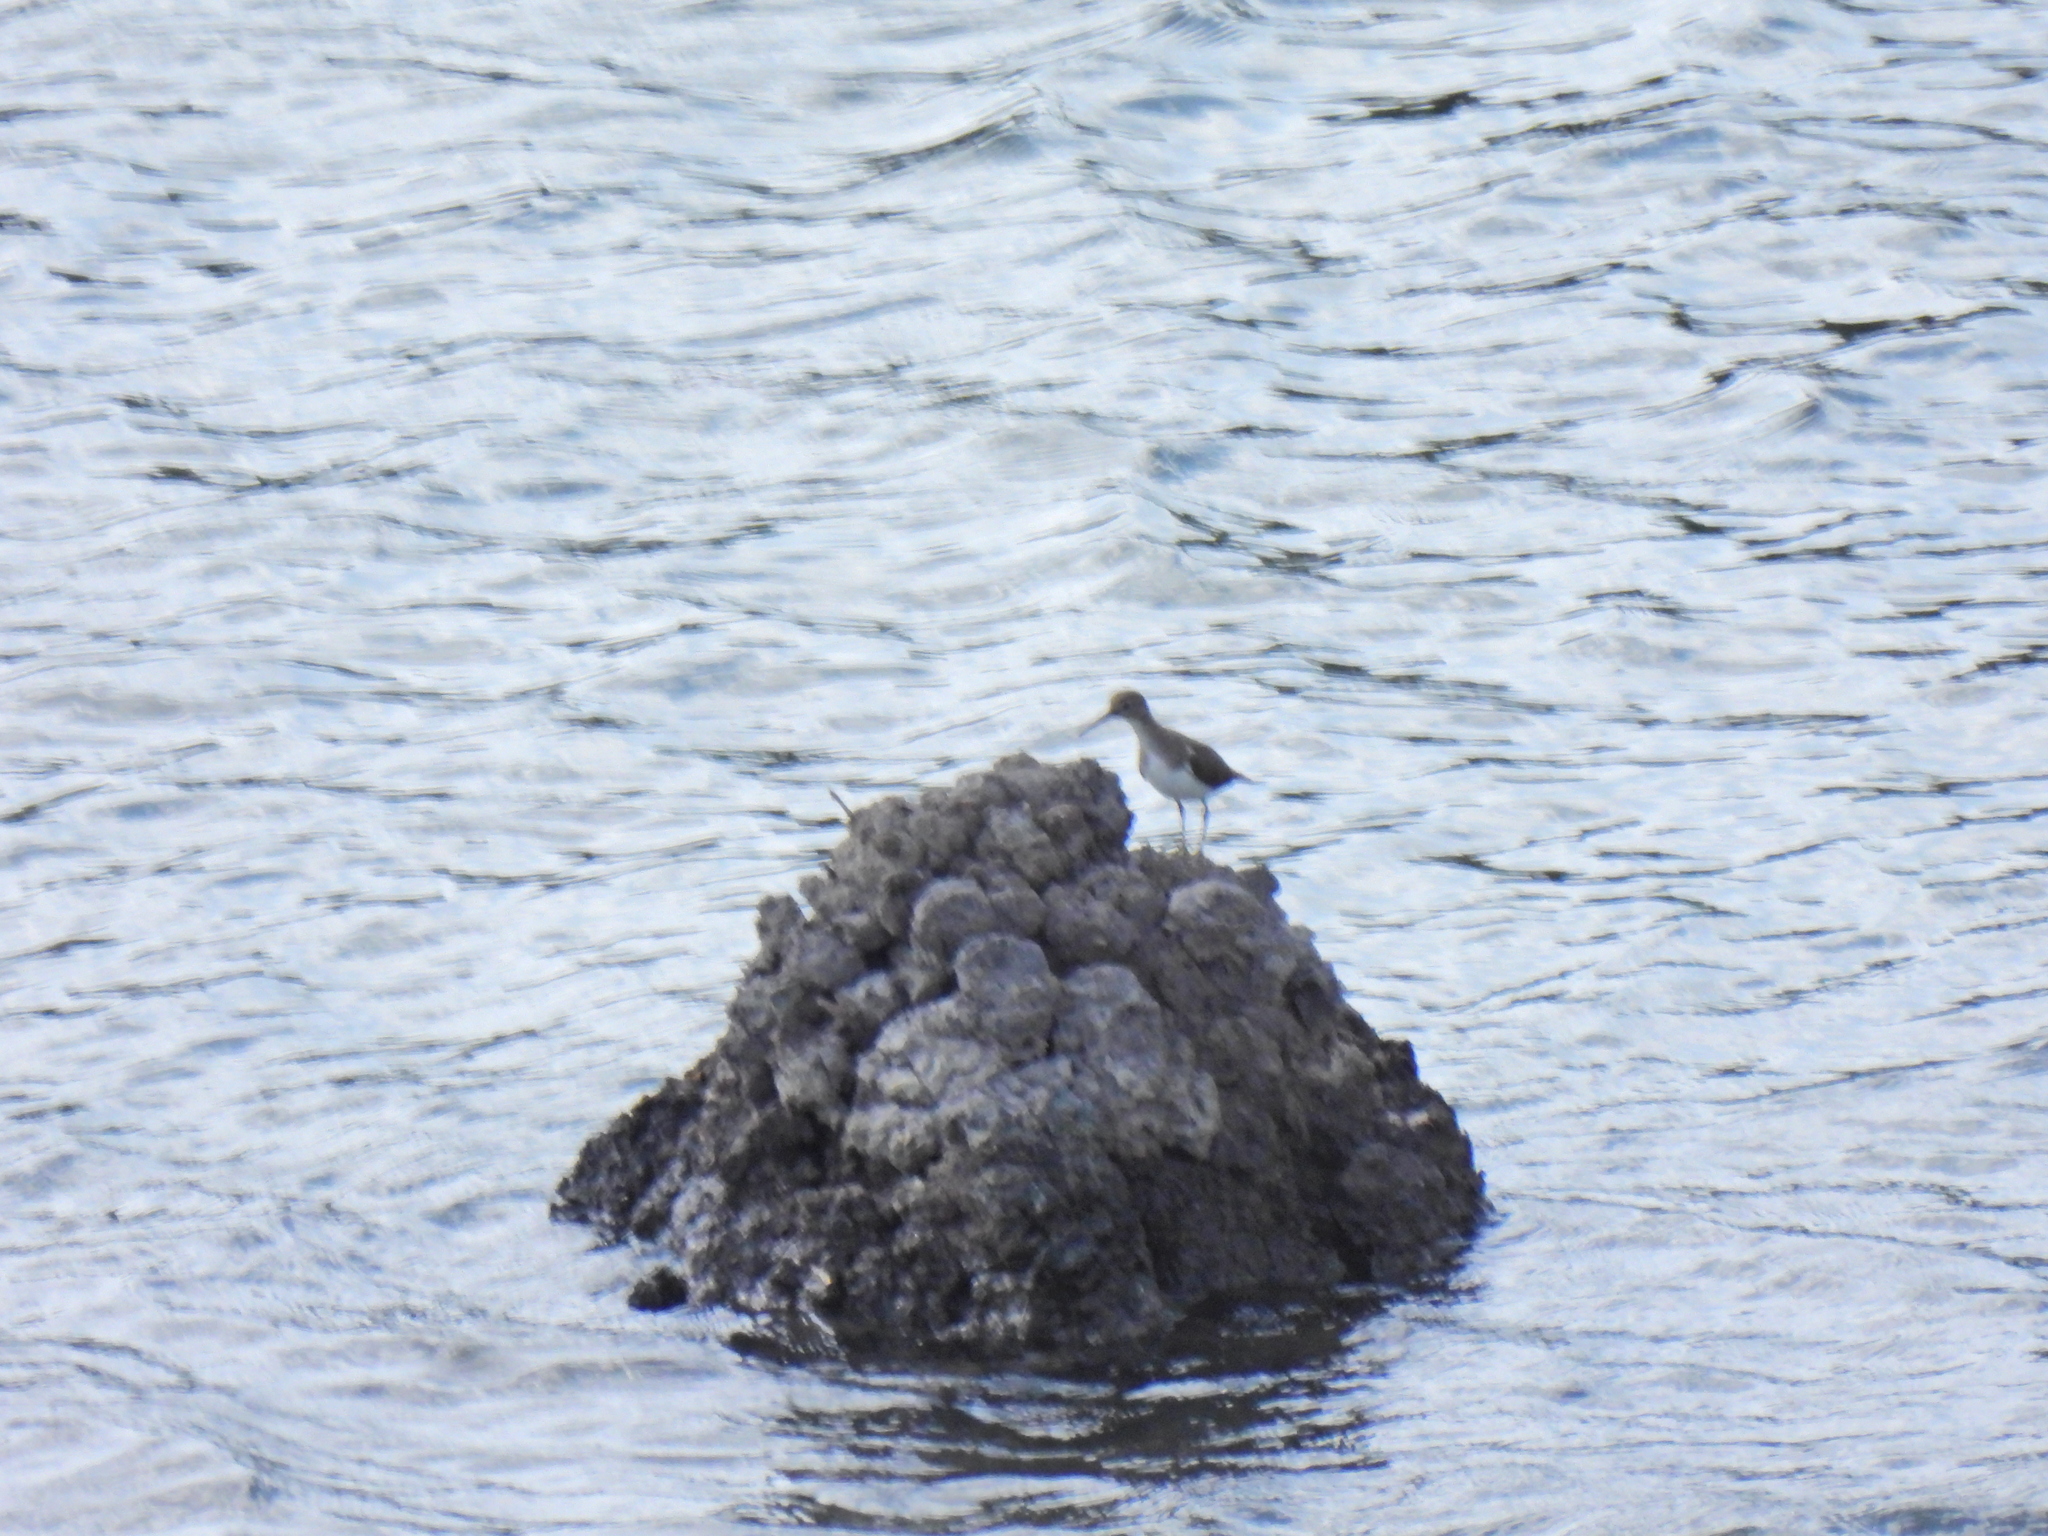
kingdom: Animalia
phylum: Chordata
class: Aves
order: Charadriiformes
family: Scolopacidae
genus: Actitis
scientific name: Actitis hypoleucos
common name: Common sandpiper
